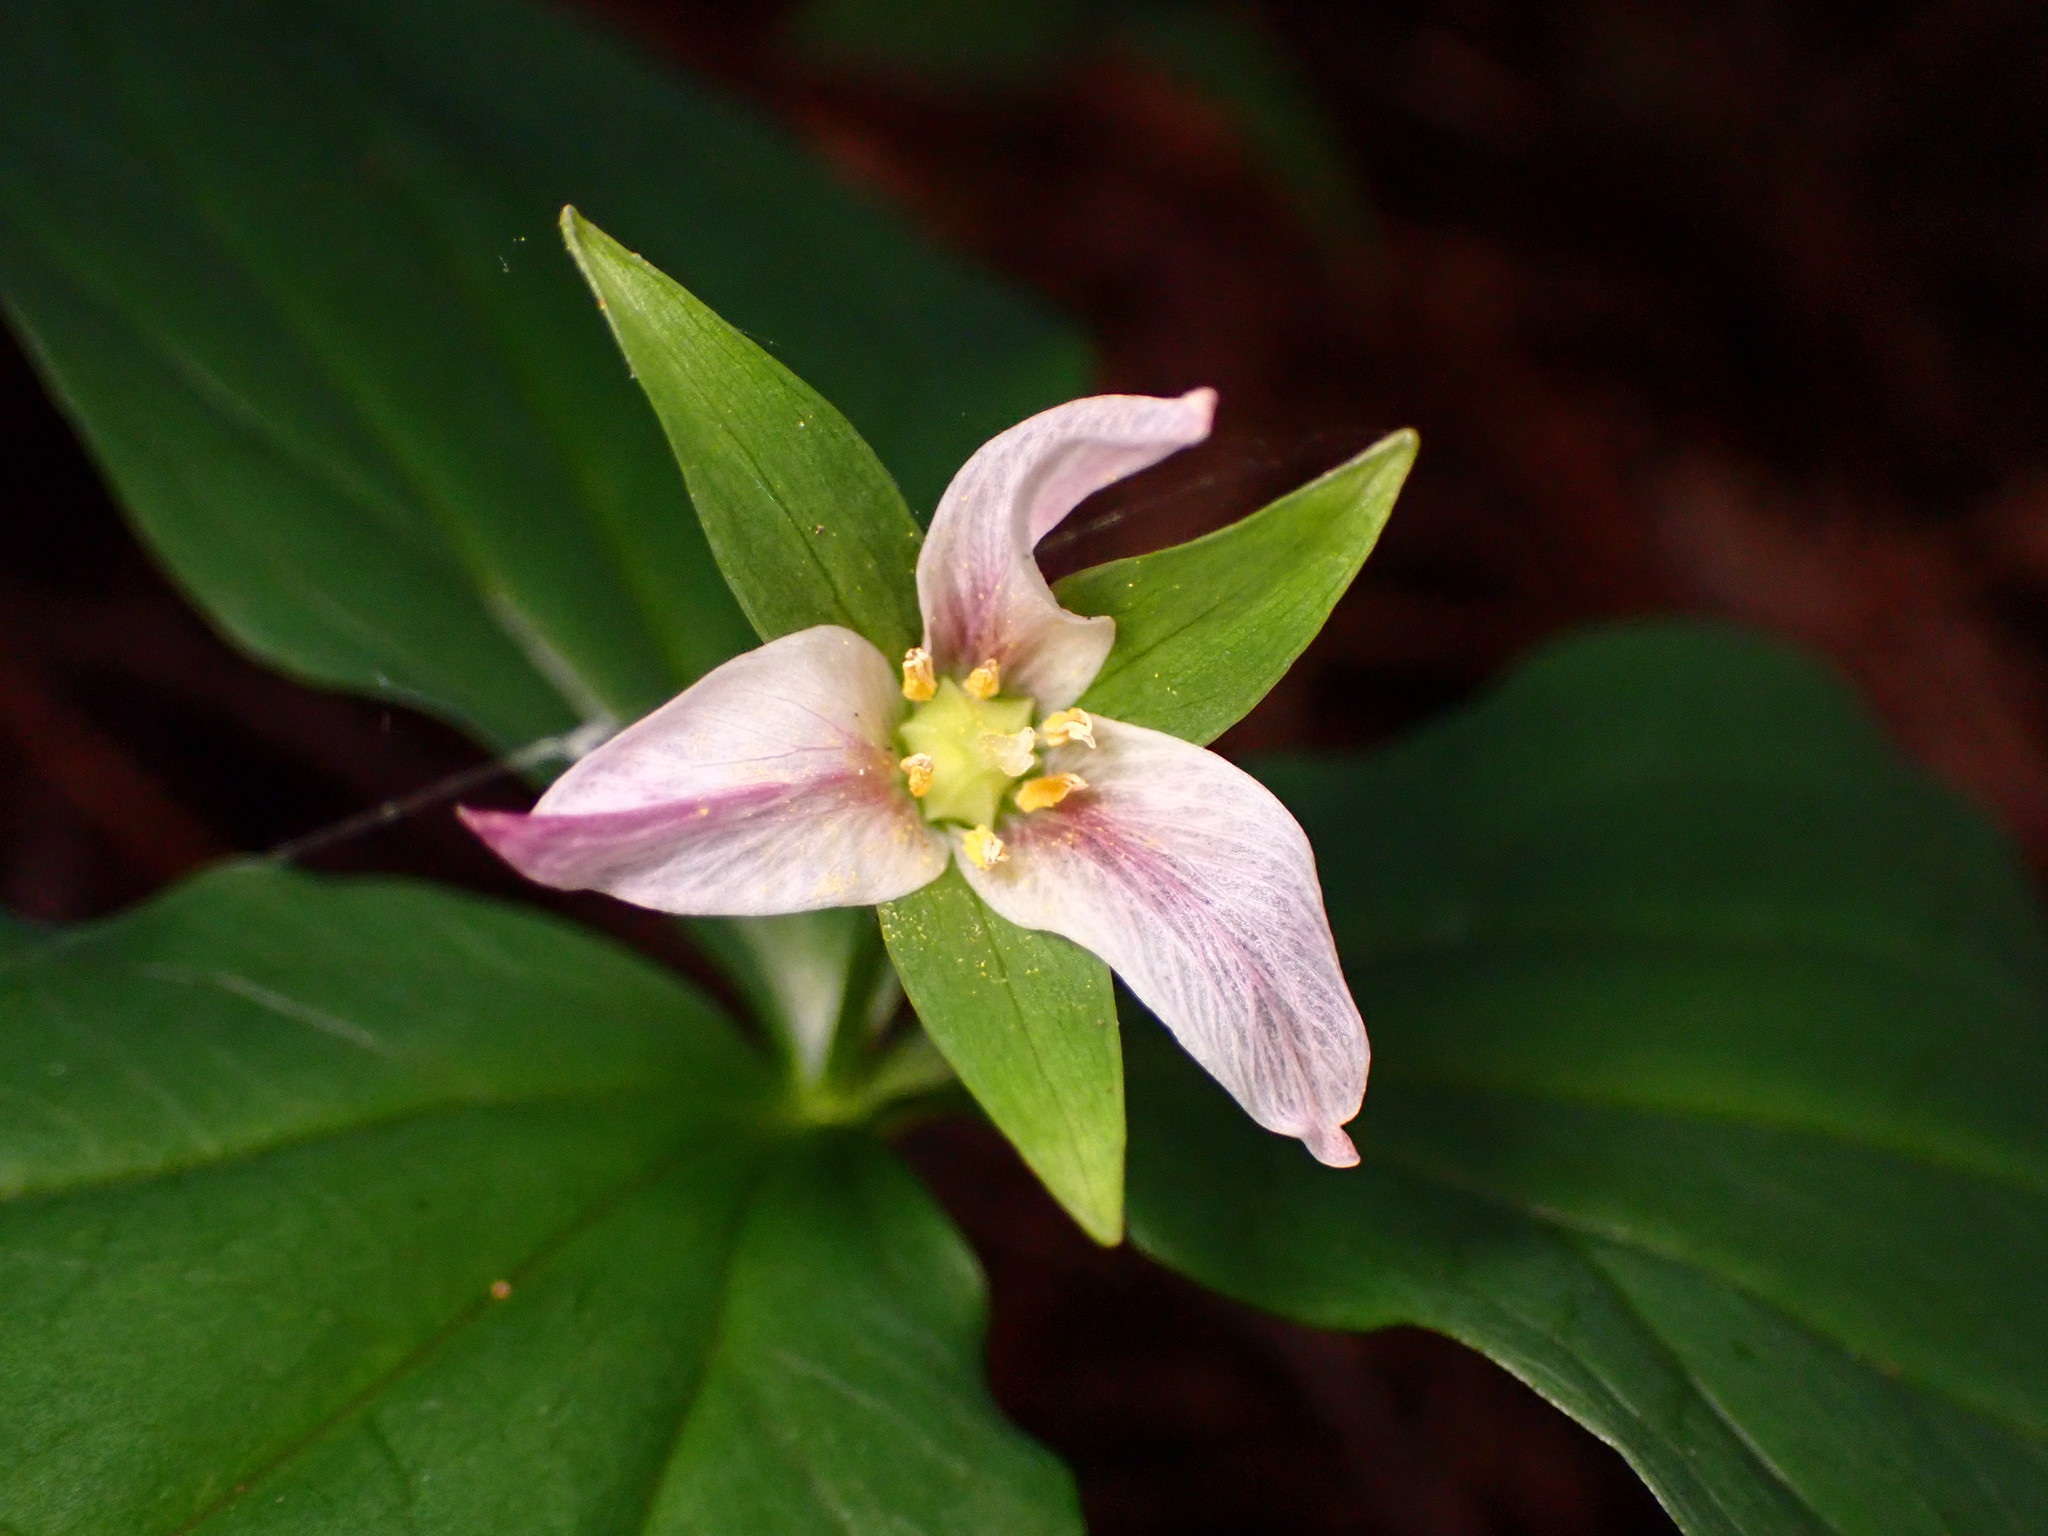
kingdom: Plantae
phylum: Tracheophyta
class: Liliopsida
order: Liliales
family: Melanthiaceae
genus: Trillium
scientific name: Trillium ovatum
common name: Pacific trillium
